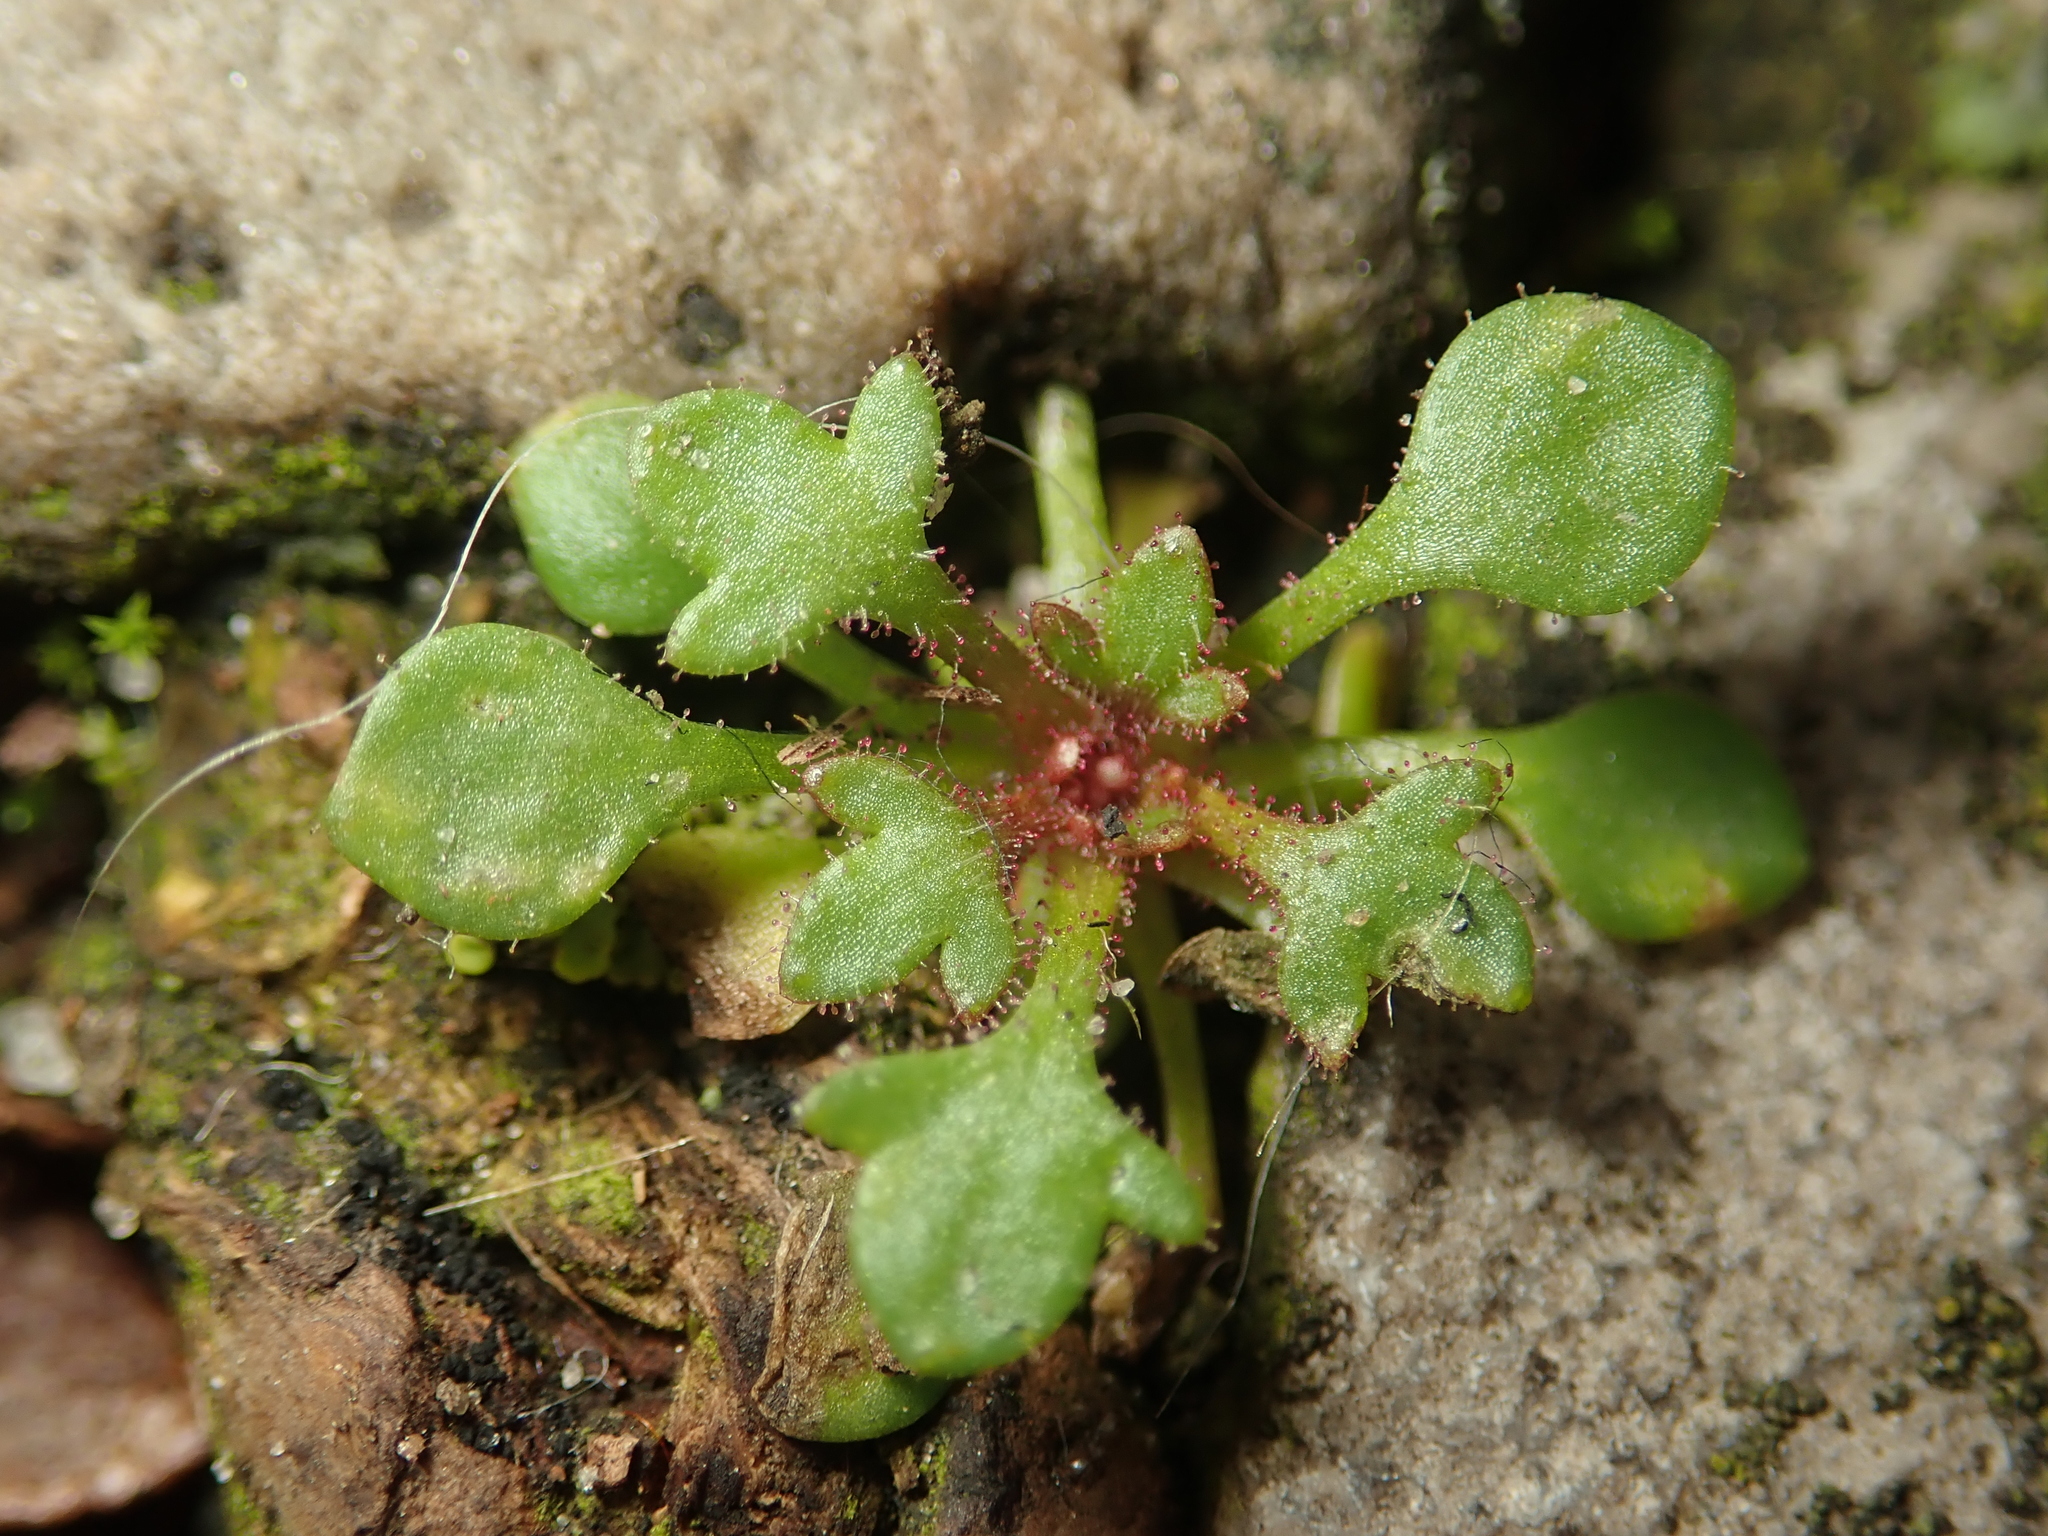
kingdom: Plantae
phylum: Tracheophyta
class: Magnoliopsida
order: Saxifragales
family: Saxifragaceae
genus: Saxifraga
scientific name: Saxifraga tridactylites
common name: Rue-leaved saxifrage
